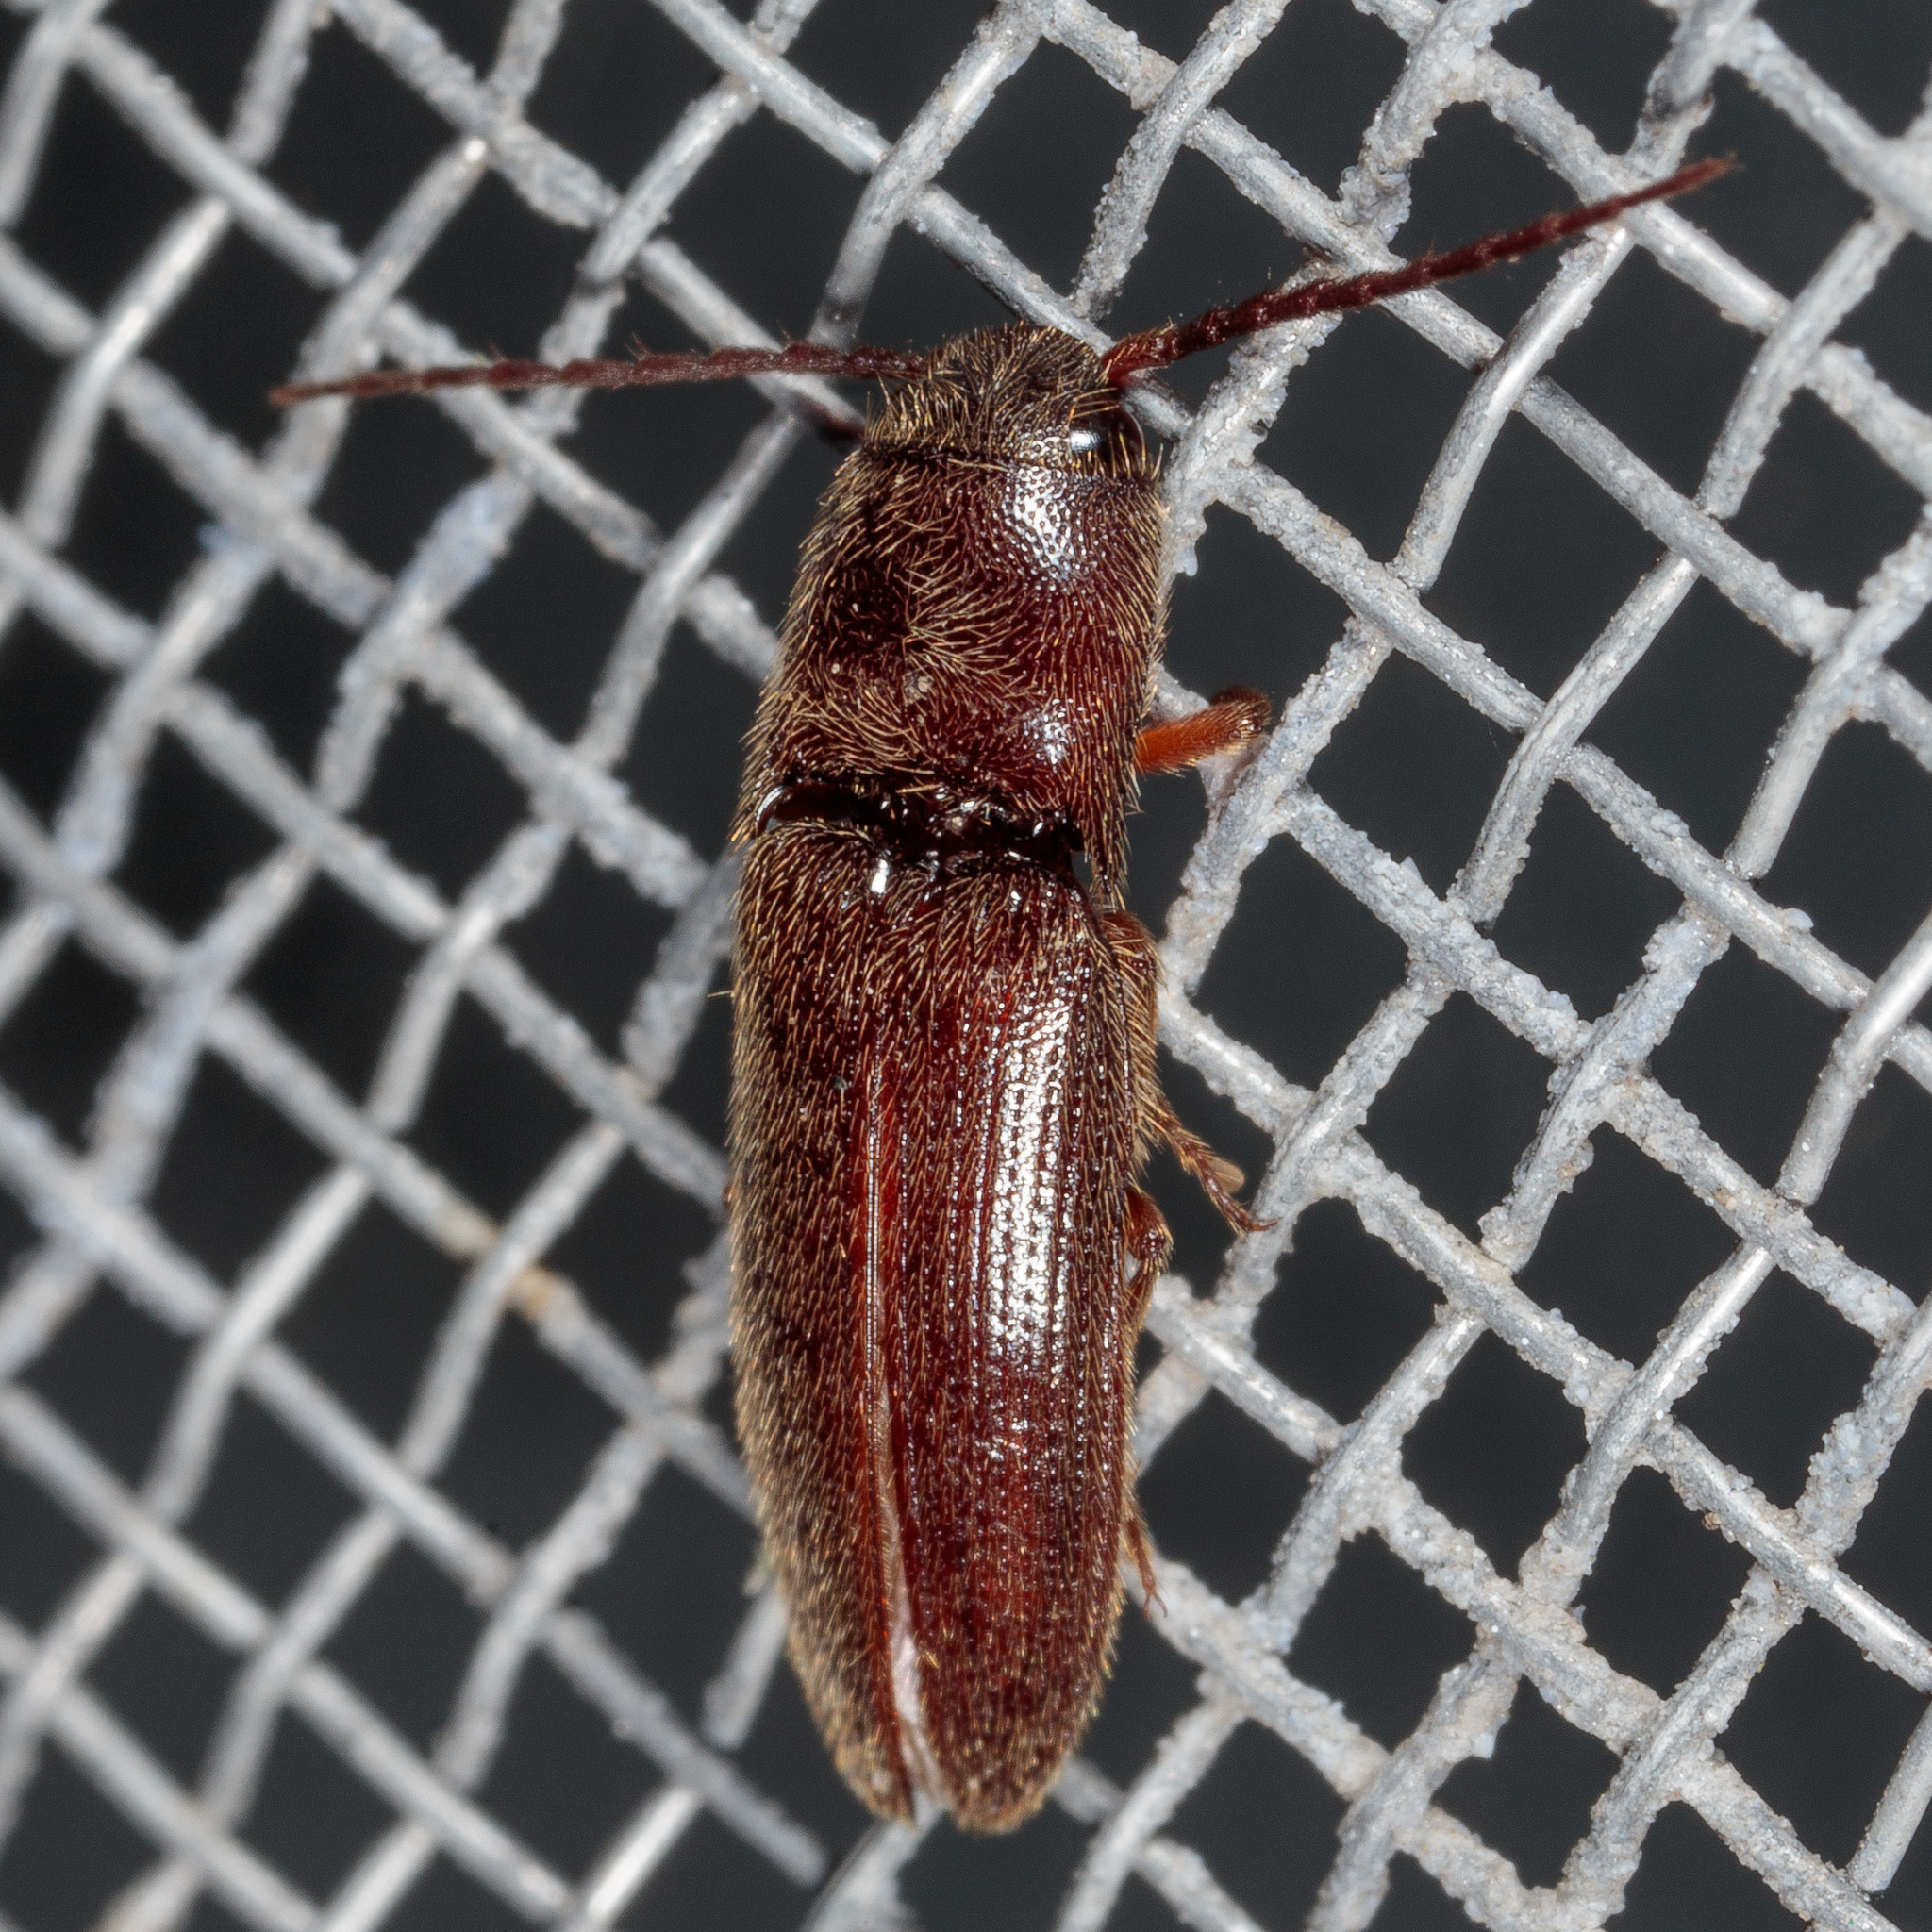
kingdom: Animalia
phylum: Arthropoda
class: Insecta
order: Coleoptera
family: Elateridae
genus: Dipropus
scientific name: Dipropus
